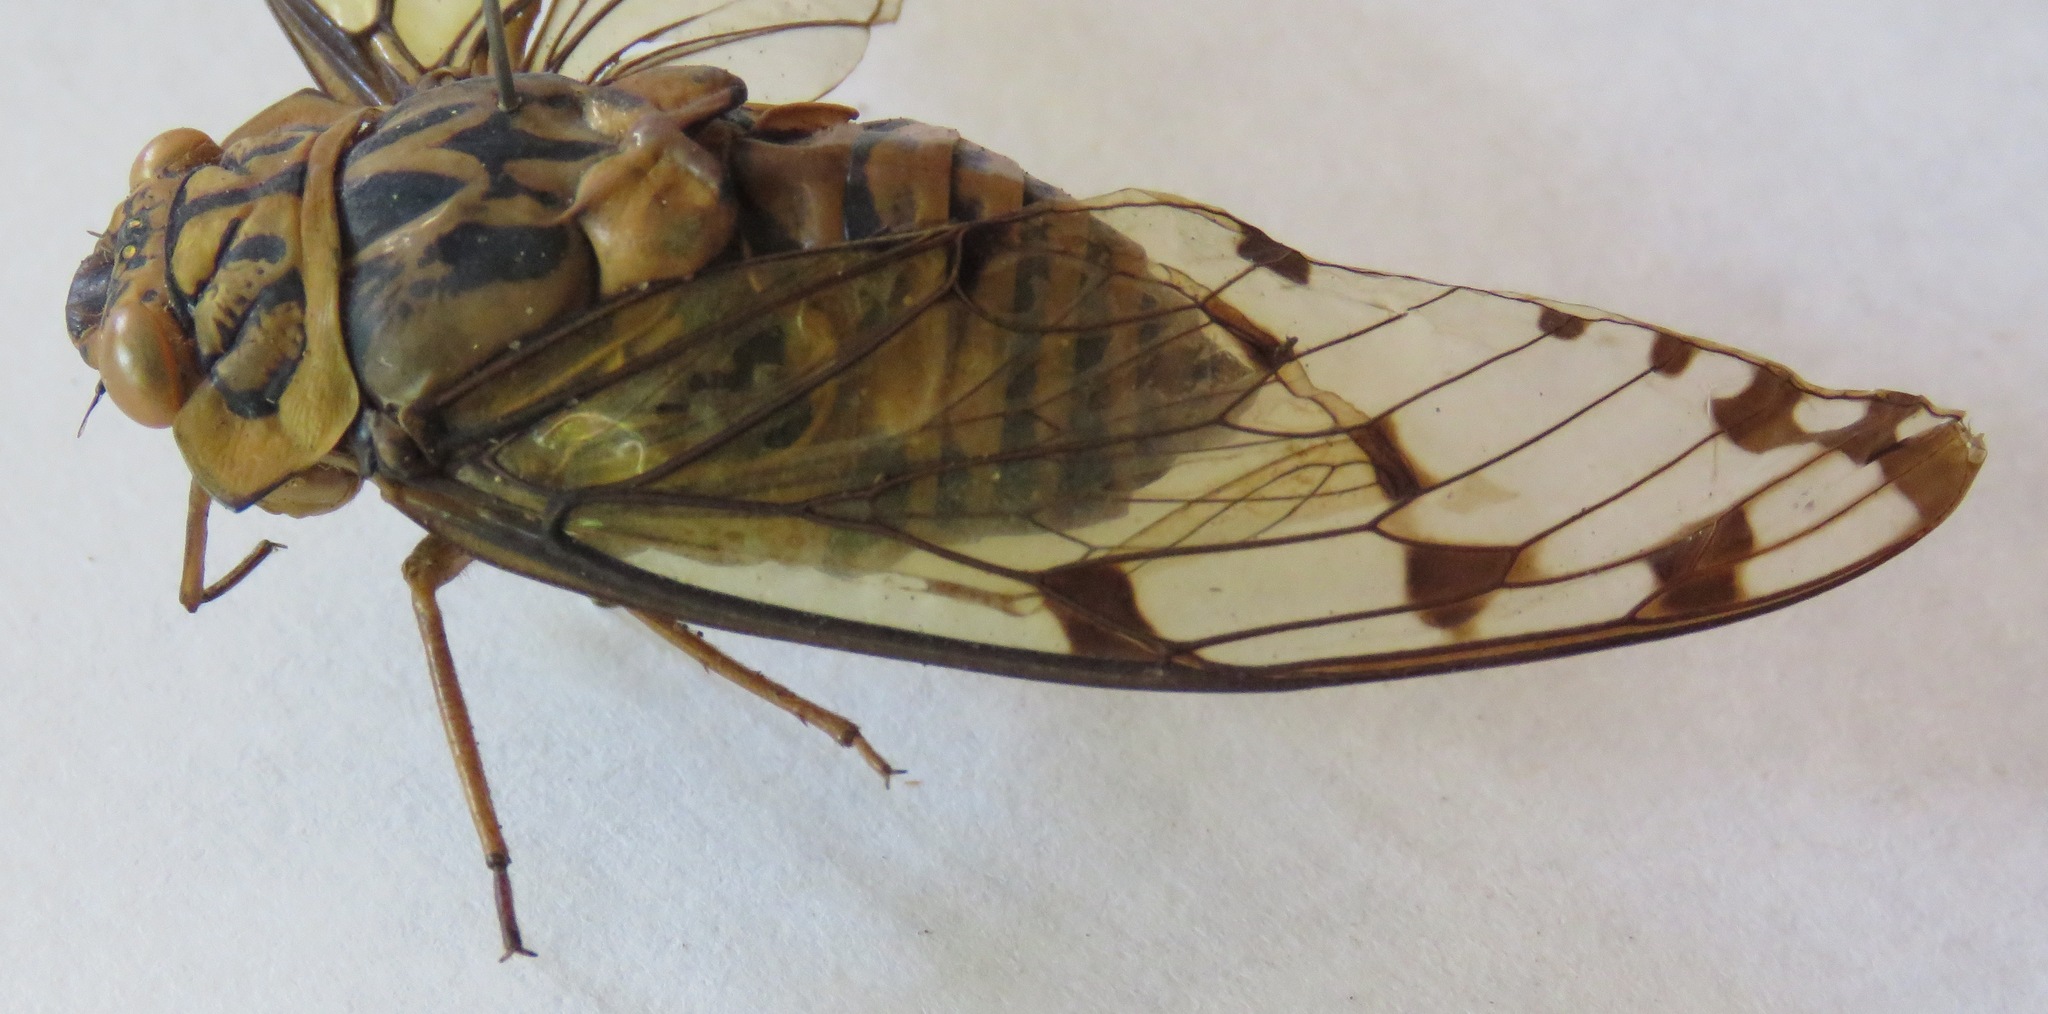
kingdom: Animalia
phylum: Arthropoda
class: Insecta
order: Hemiptera
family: Cicadidae
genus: Zammara
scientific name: Zammara smaragdina
